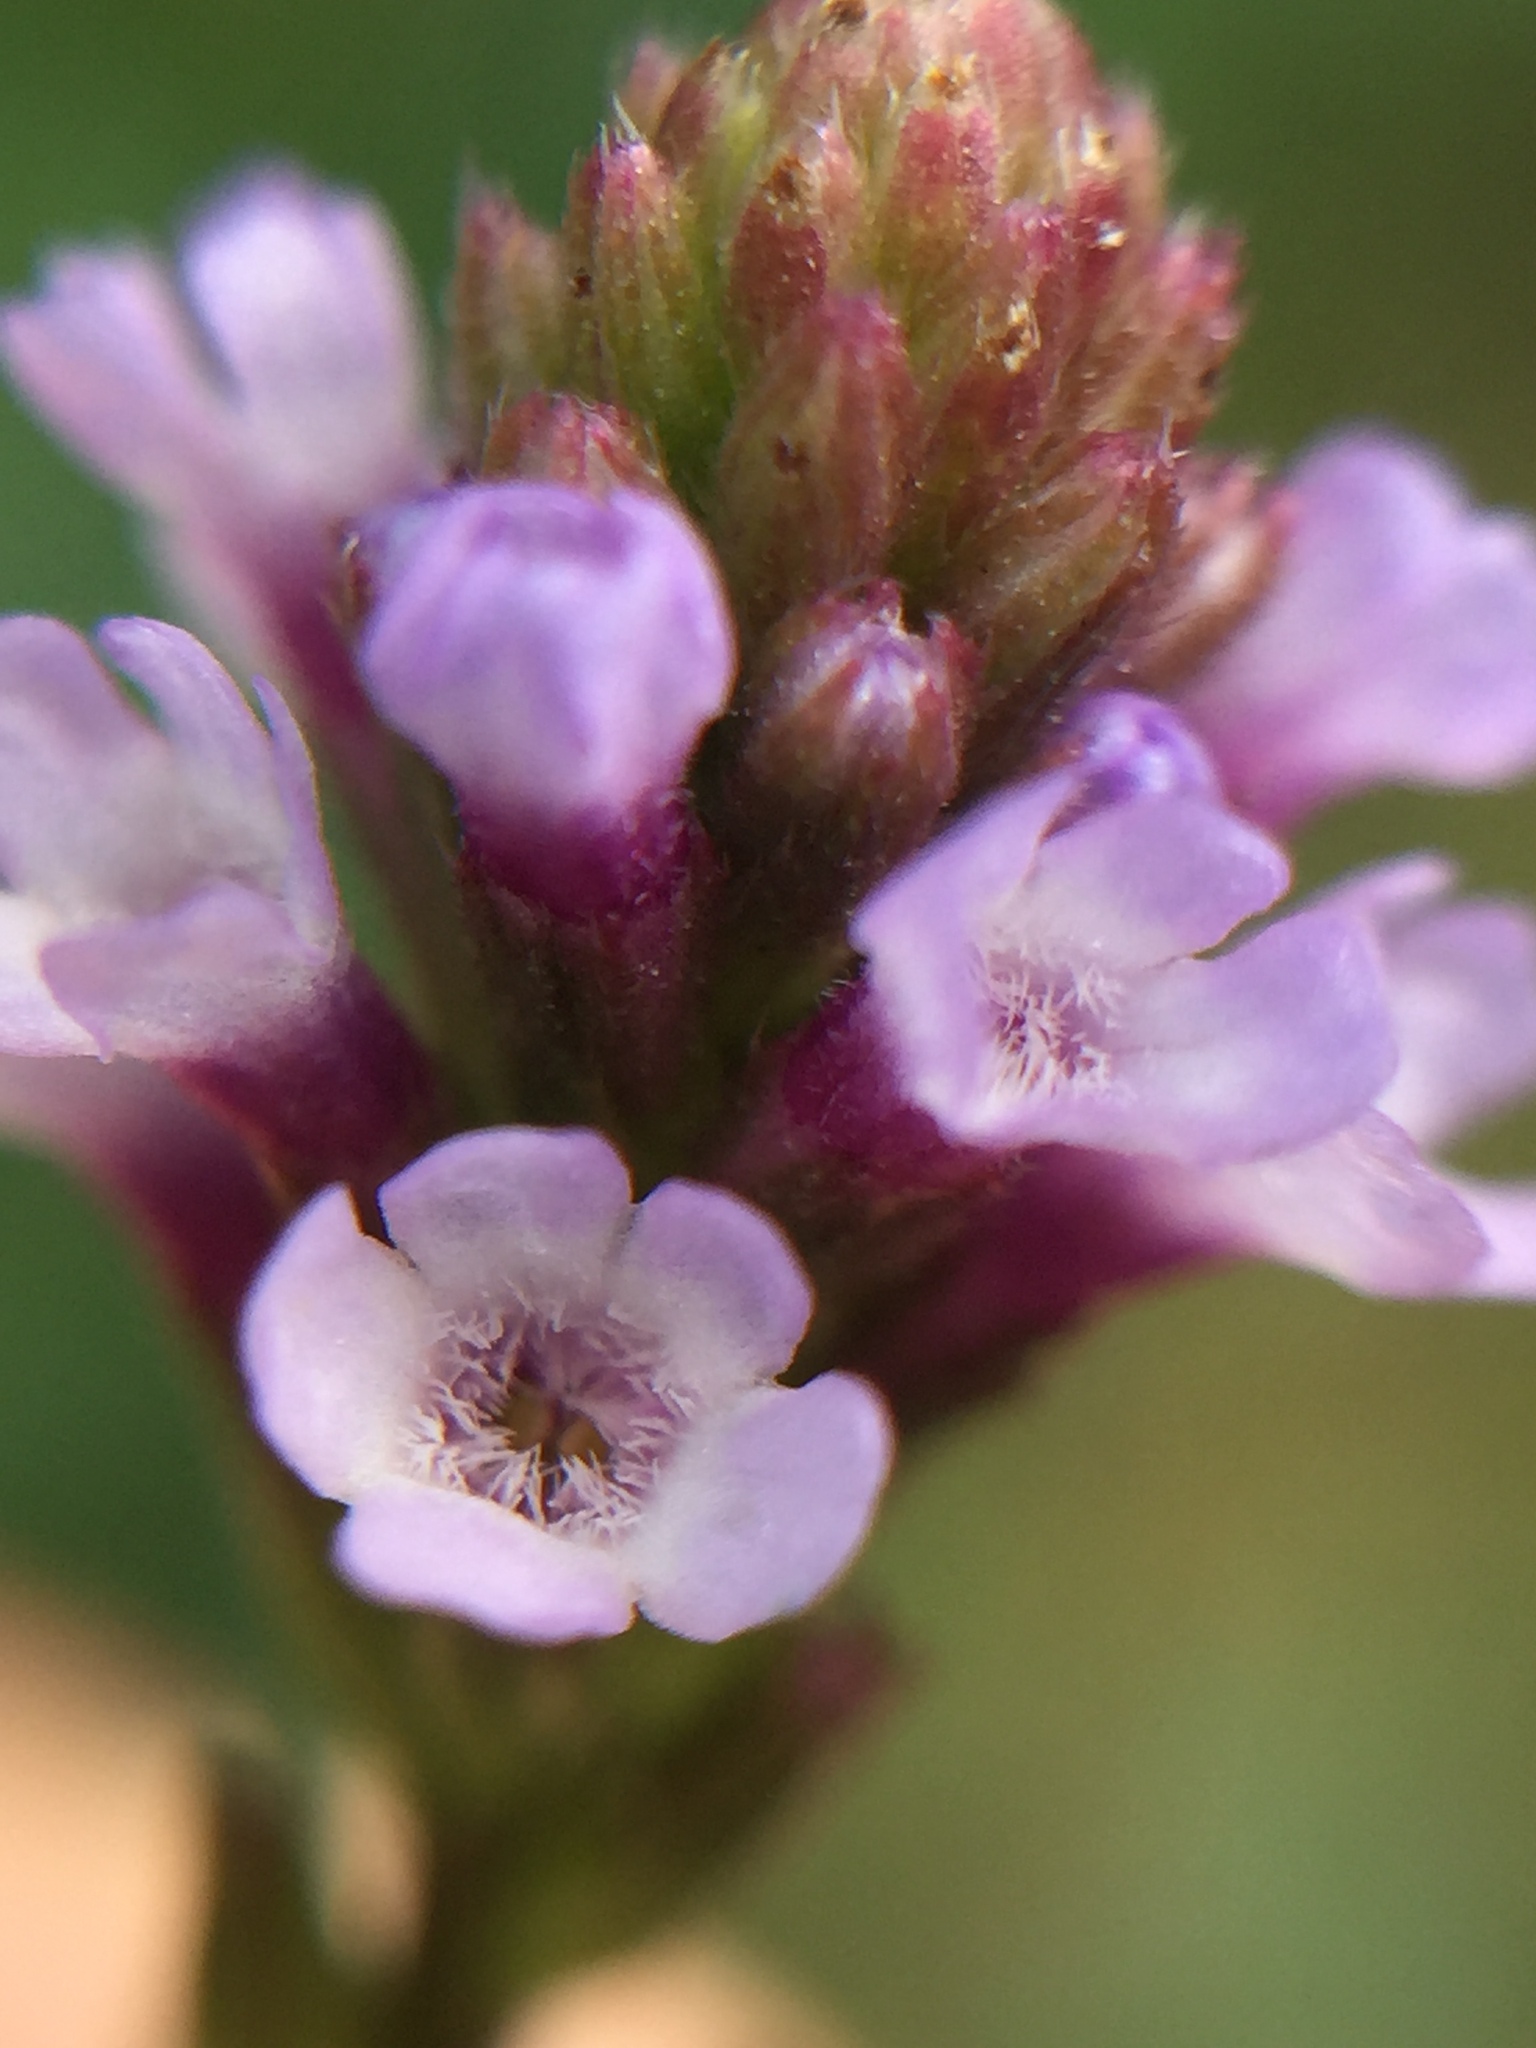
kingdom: Plantae
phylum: Tracheophyta
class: Magnoliopsida
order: Lamiales
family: Verbenaceae
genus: Verbena
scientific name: Verbena litoralis
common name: Seashore vervain
